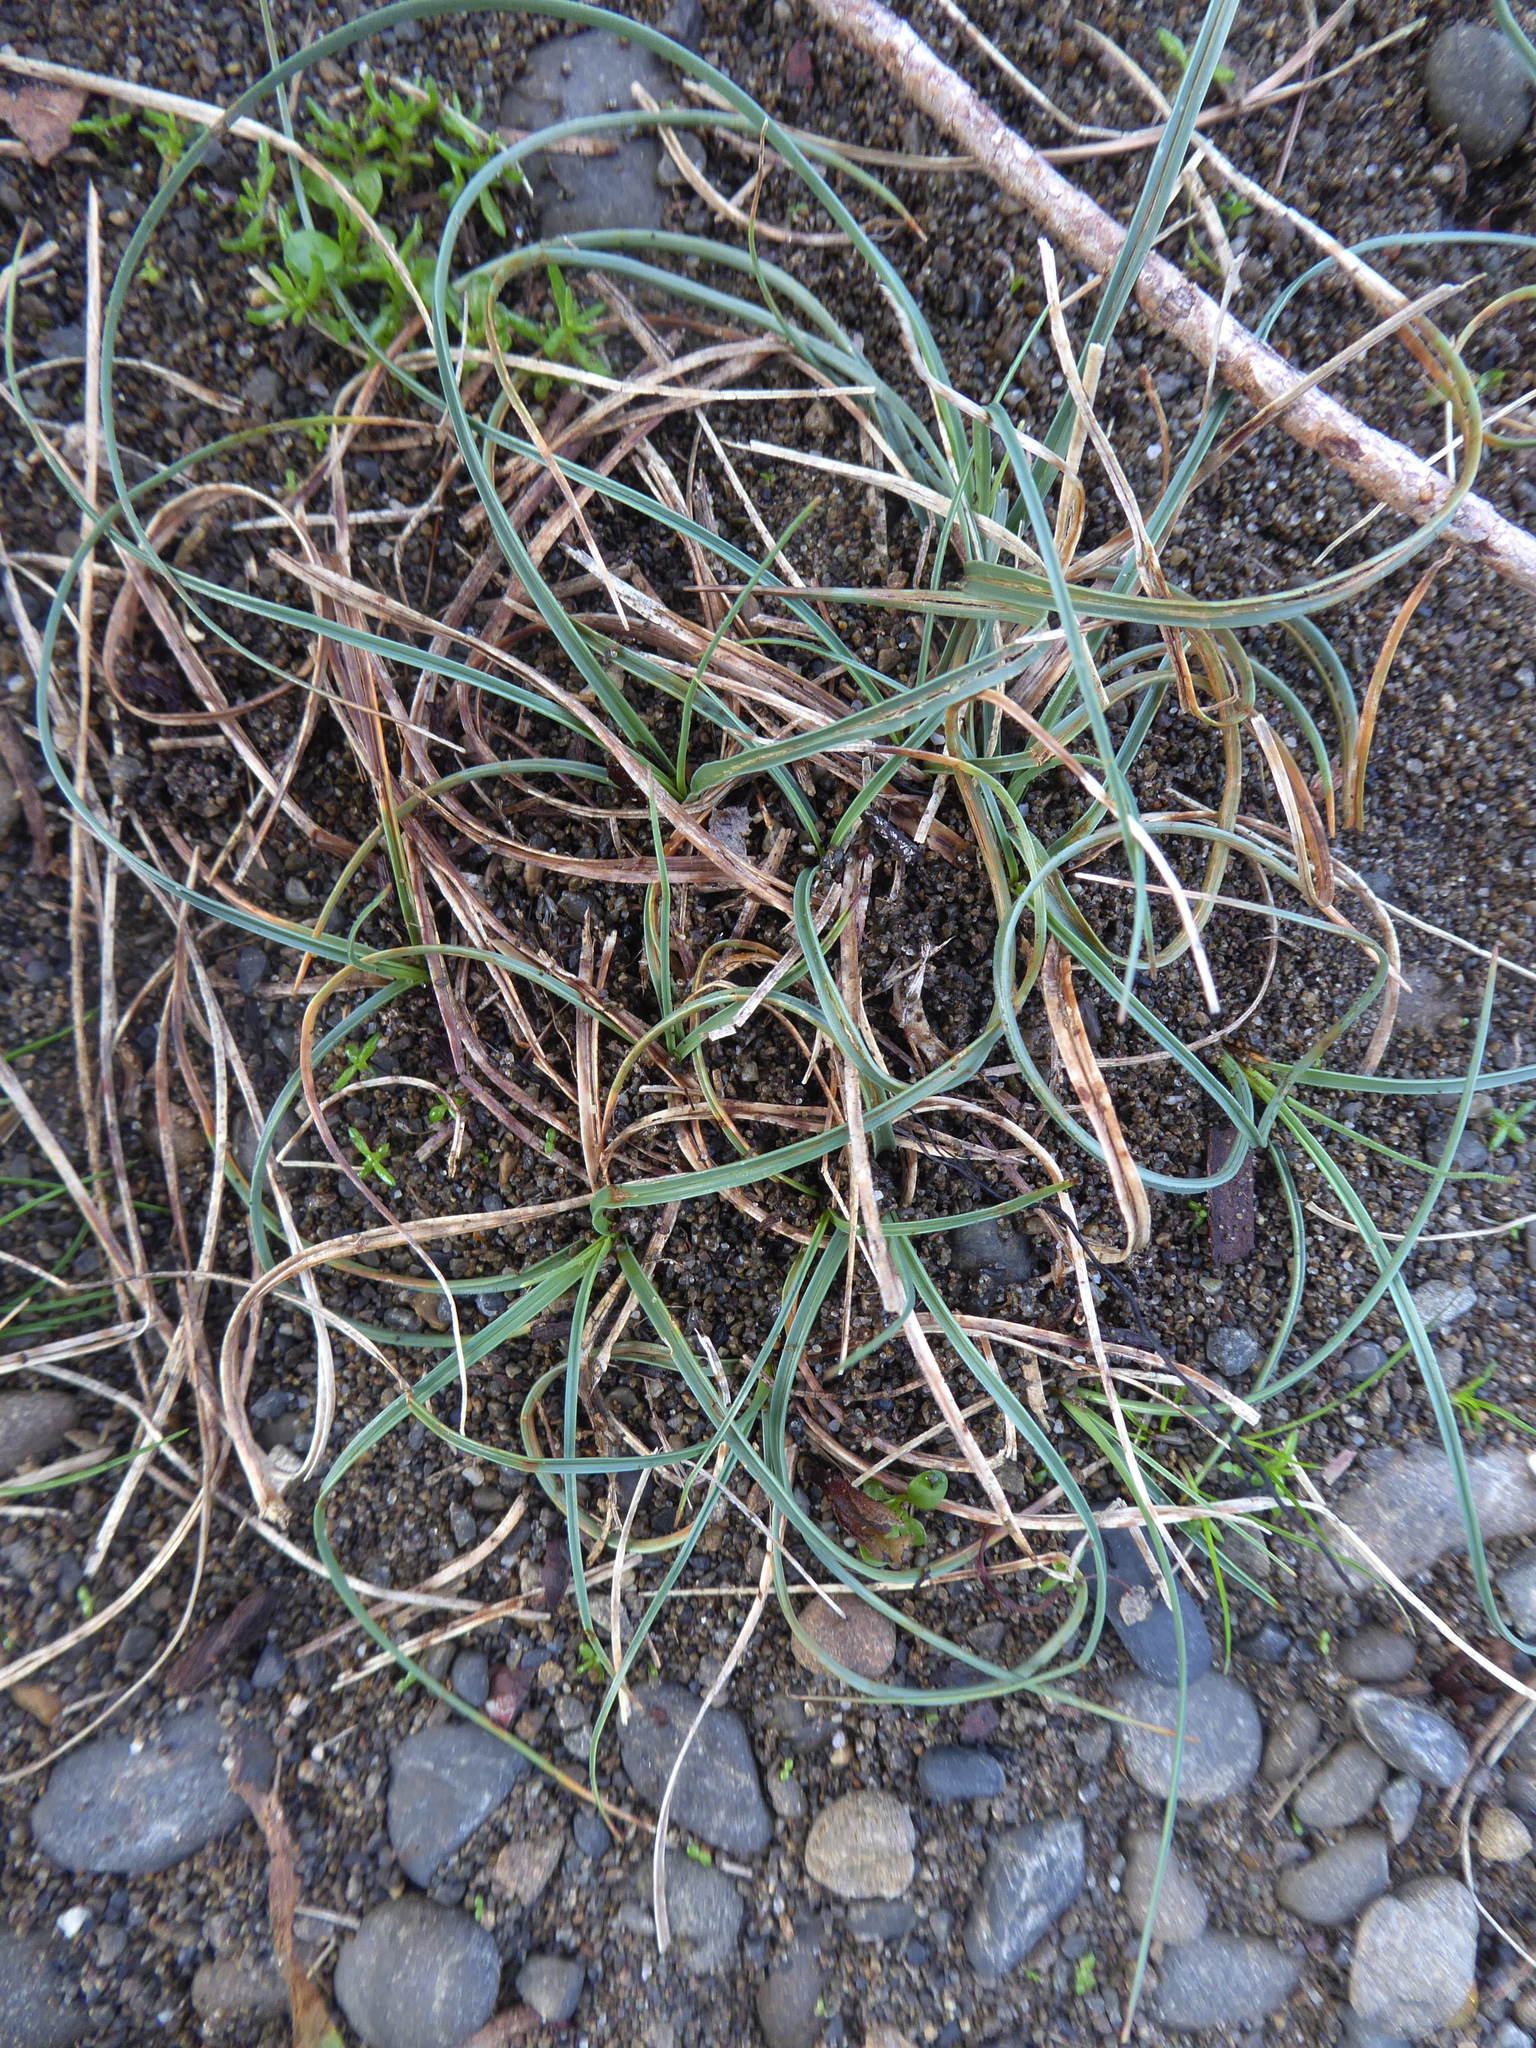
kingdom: Plantae
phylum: Tracheophyta
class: Liliopsida
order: Poales
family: Cyperaceae
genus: Carex
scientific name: Carex pumila
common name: Dwarf sedge
